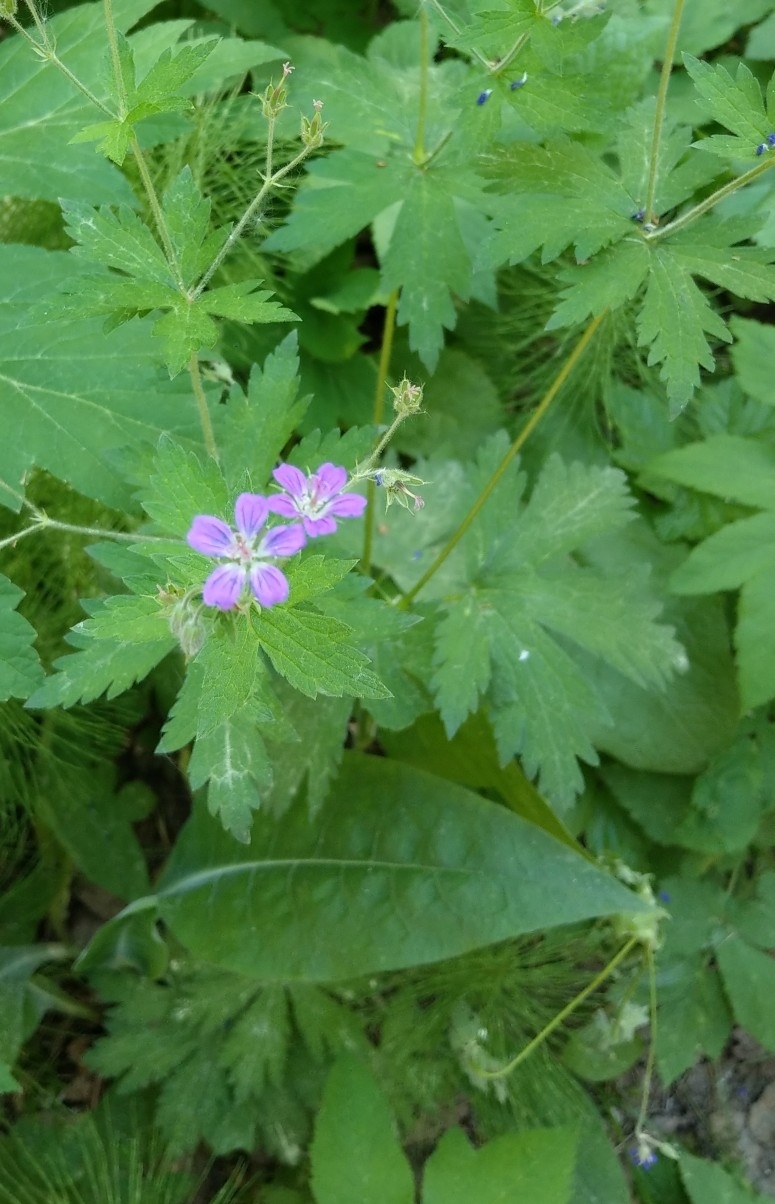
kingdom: Plantae
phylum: Tracheophyta
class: Magnoliopsida
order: Geraniales
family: Geraniaceae
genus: Geranium
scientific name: Geranium sylvaticum
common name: Wood crane's-bill
